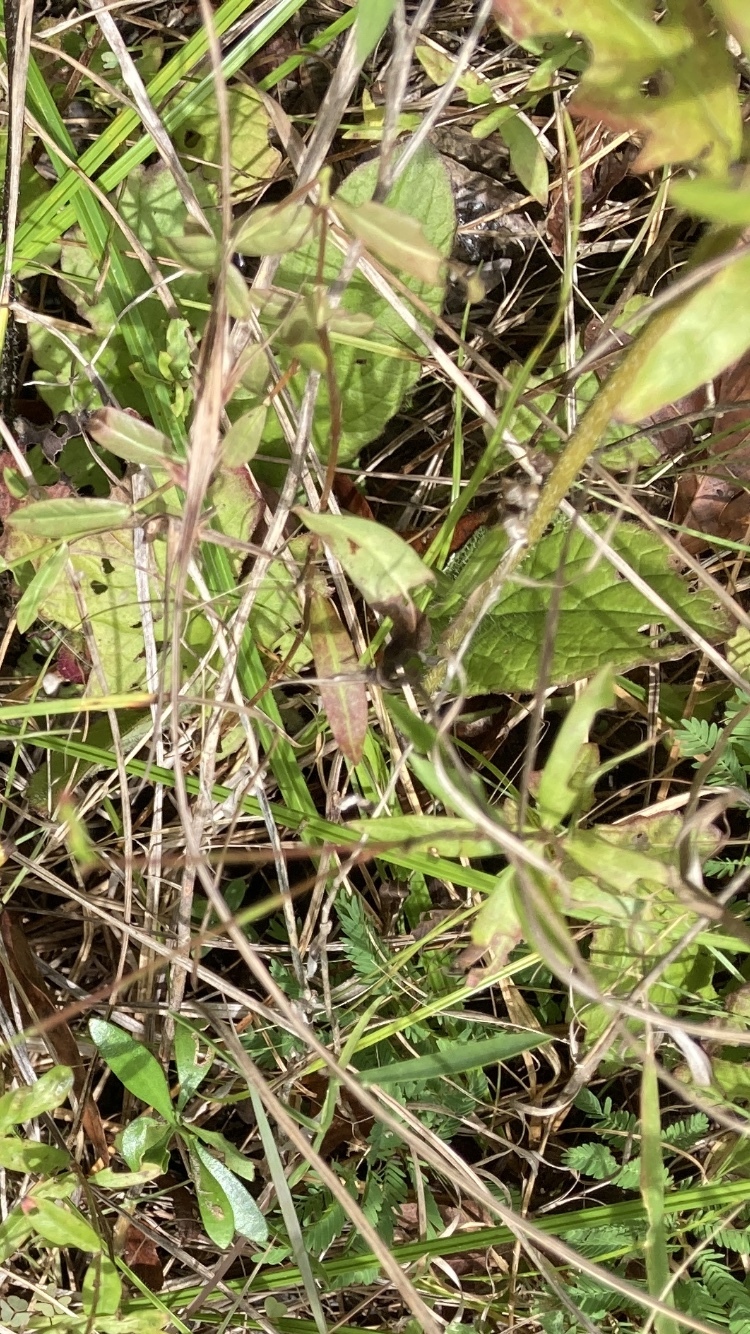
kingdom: Plantae
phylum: Tracheophyta
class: Magnoliopsida
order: Lamiales
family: Lamiaceae
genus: Salvia
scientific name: Salvia lyrata
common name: Cancerweed
